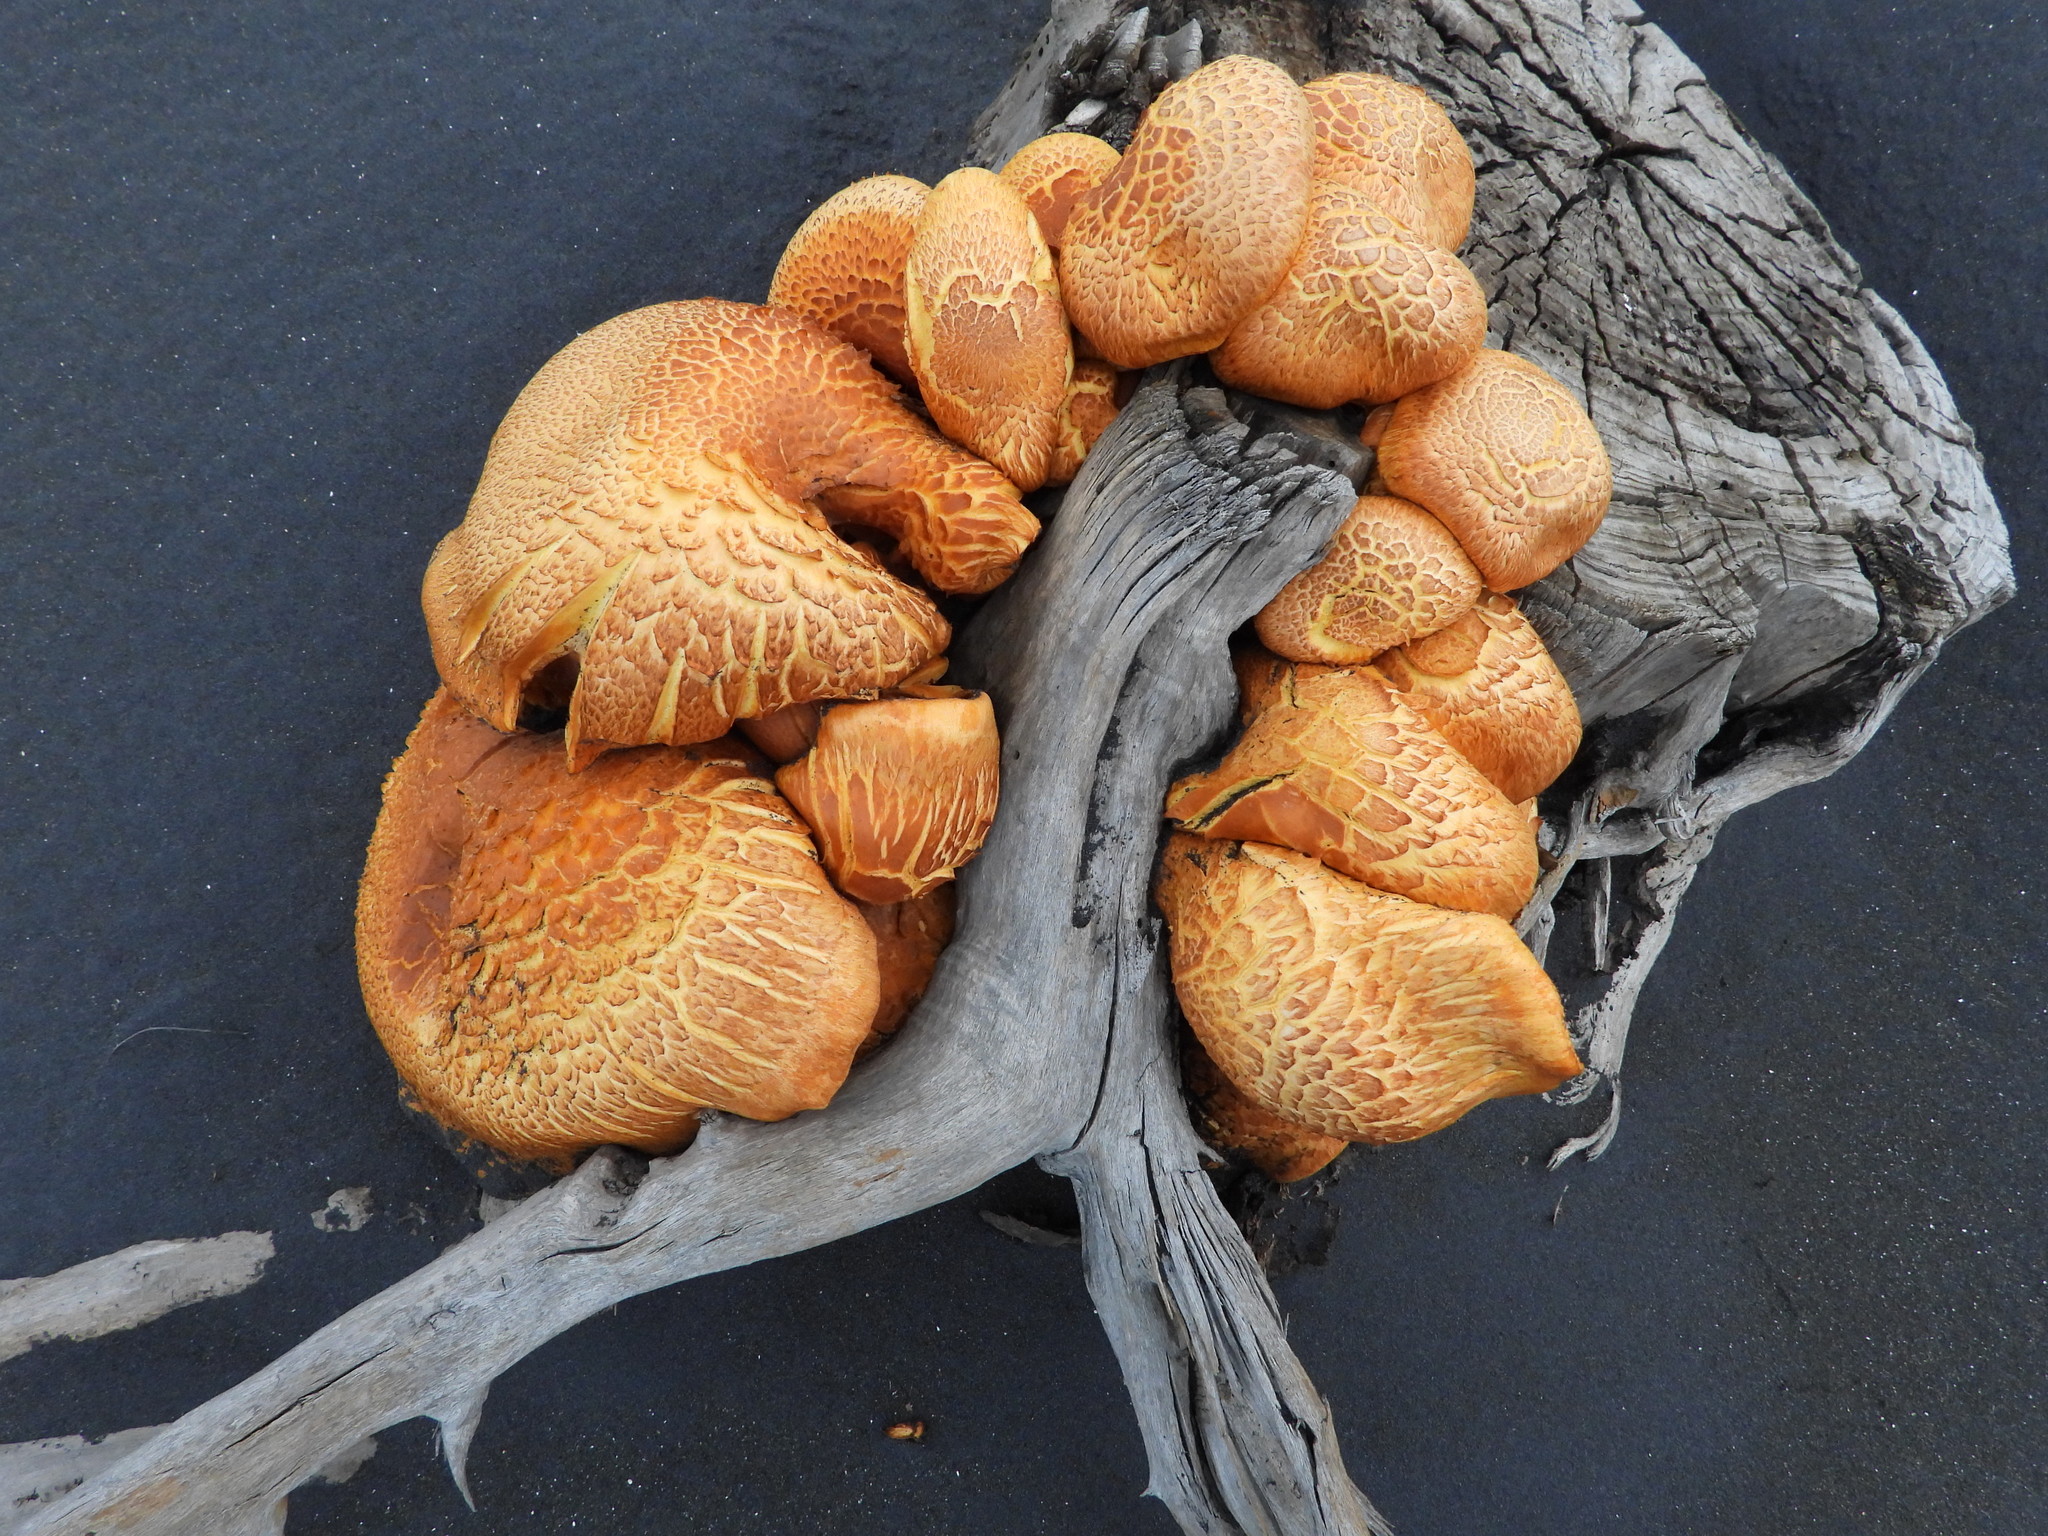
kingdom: Fungi
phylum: Basidiomycota
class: Agaricomycetes
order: Agaricales
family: Hymenogastraceae
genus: Gymnopilus
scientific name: Gymnopilus junonius
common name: Spectacular rustgill
